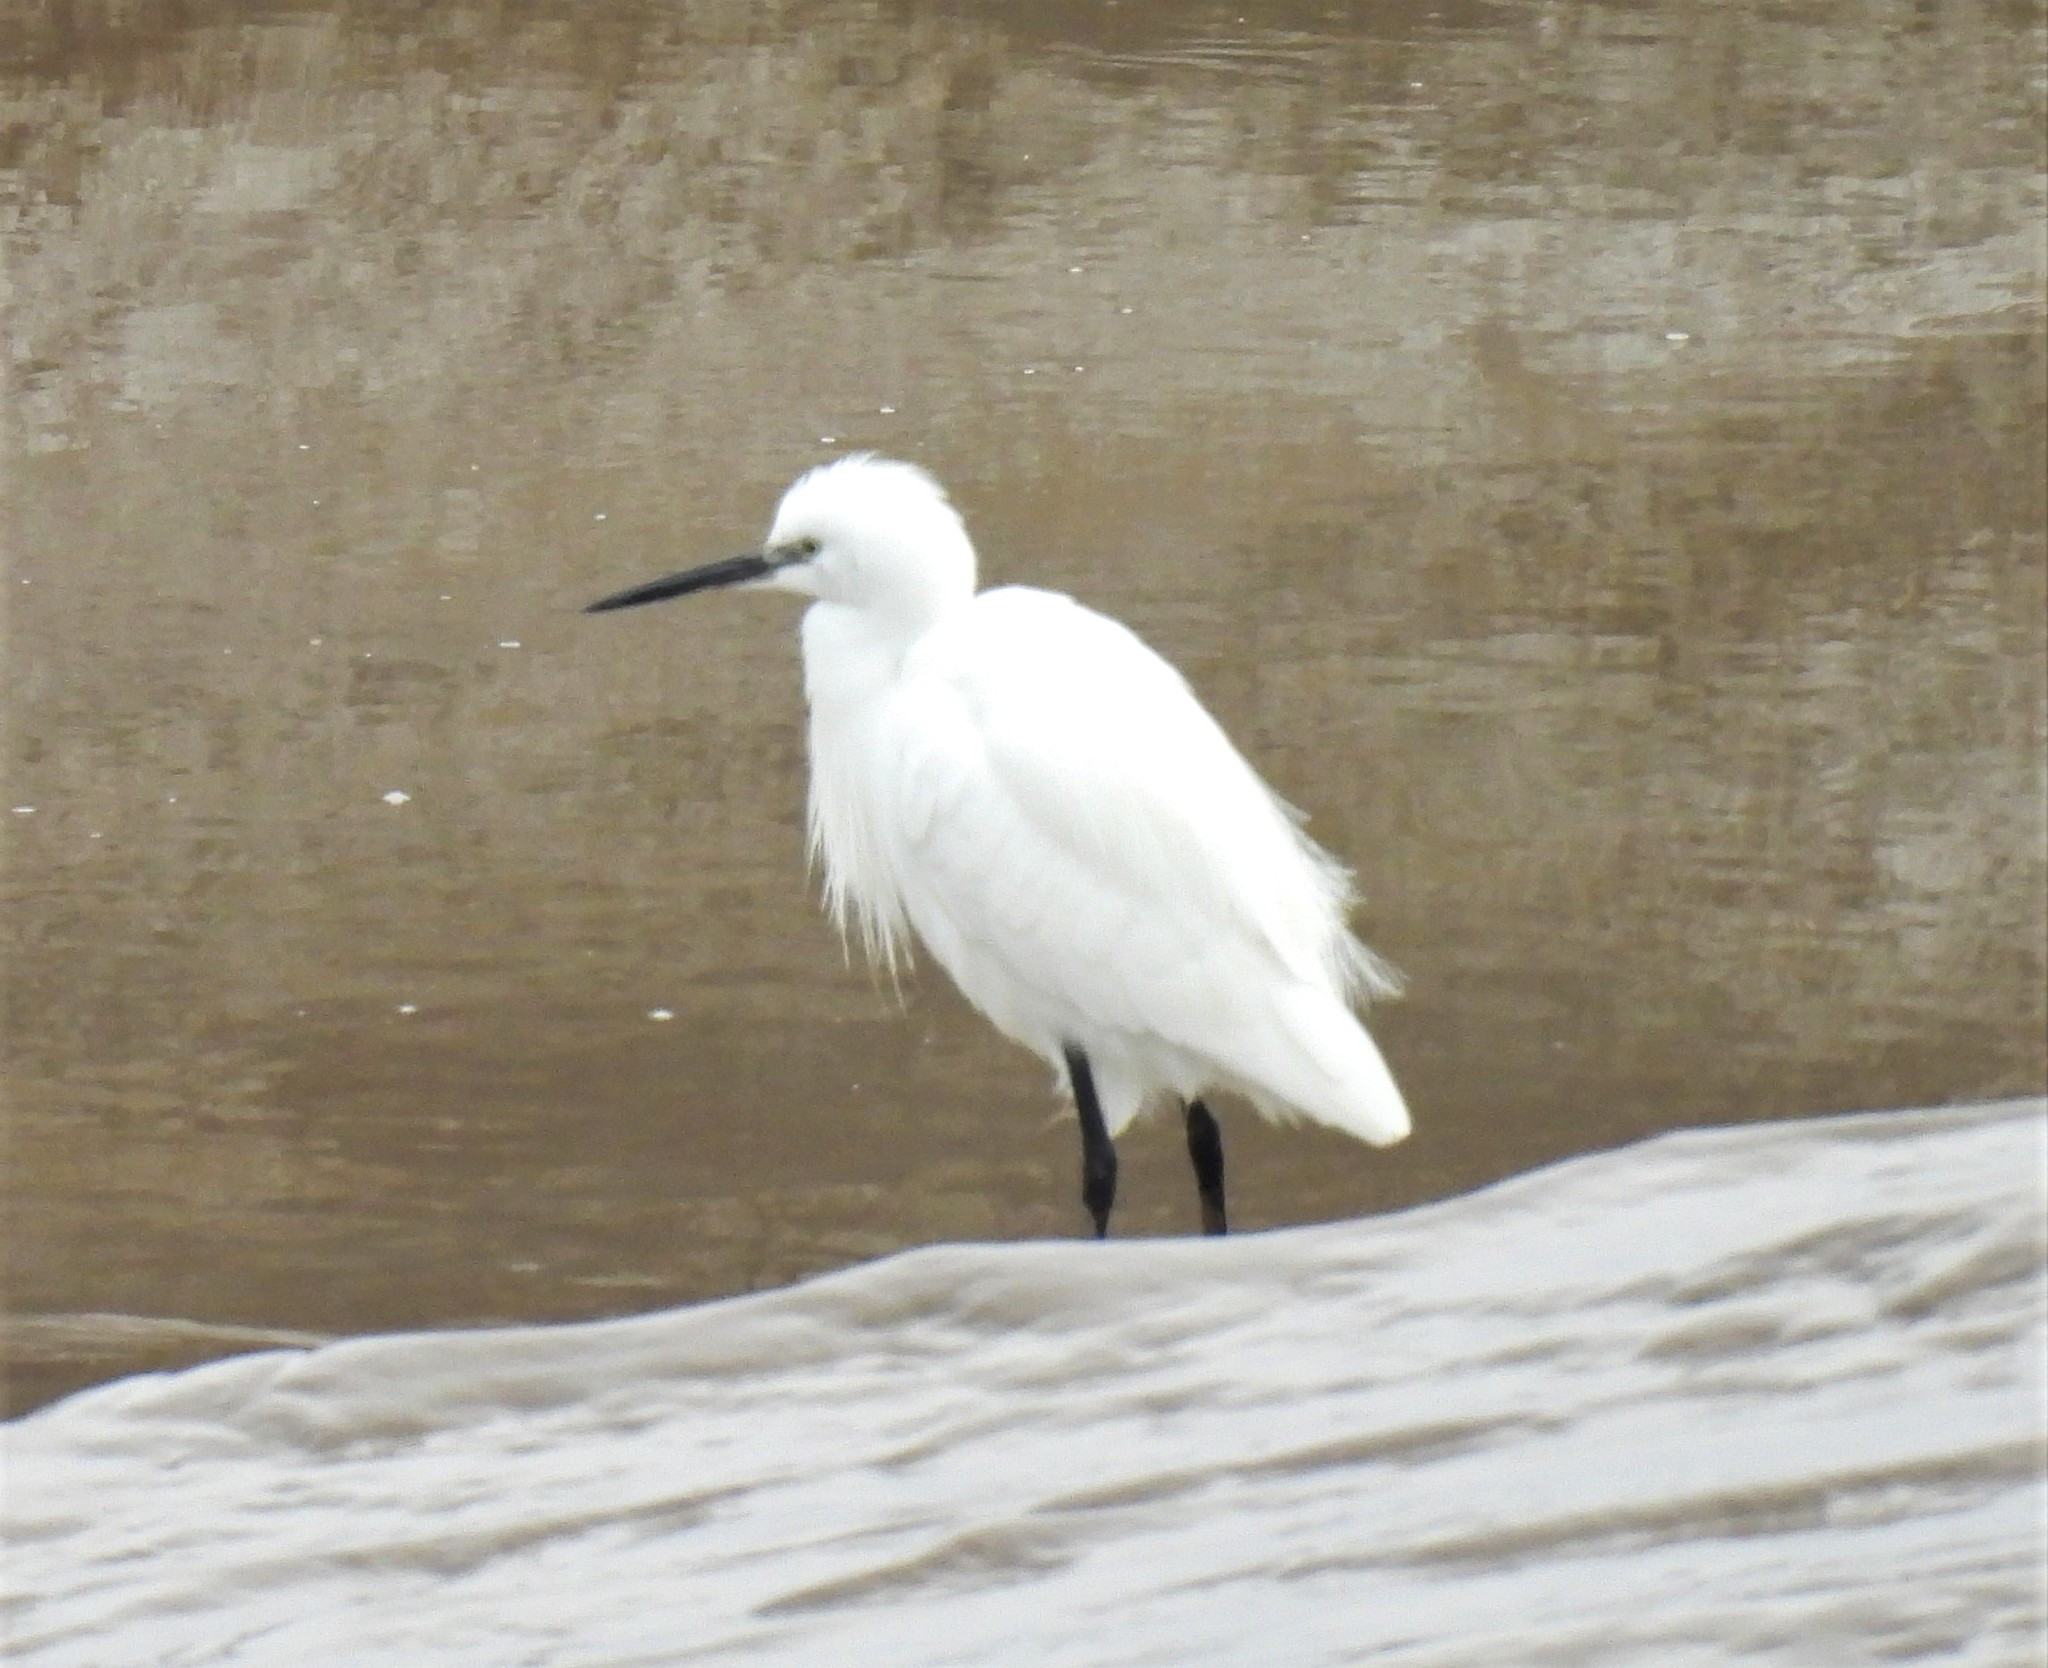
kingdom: Animalia
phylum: Chordata
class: Aves
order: Pelecaniformes
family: Ardeidae
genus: Egretta
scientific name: Egretta garzetta
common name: Little egret
